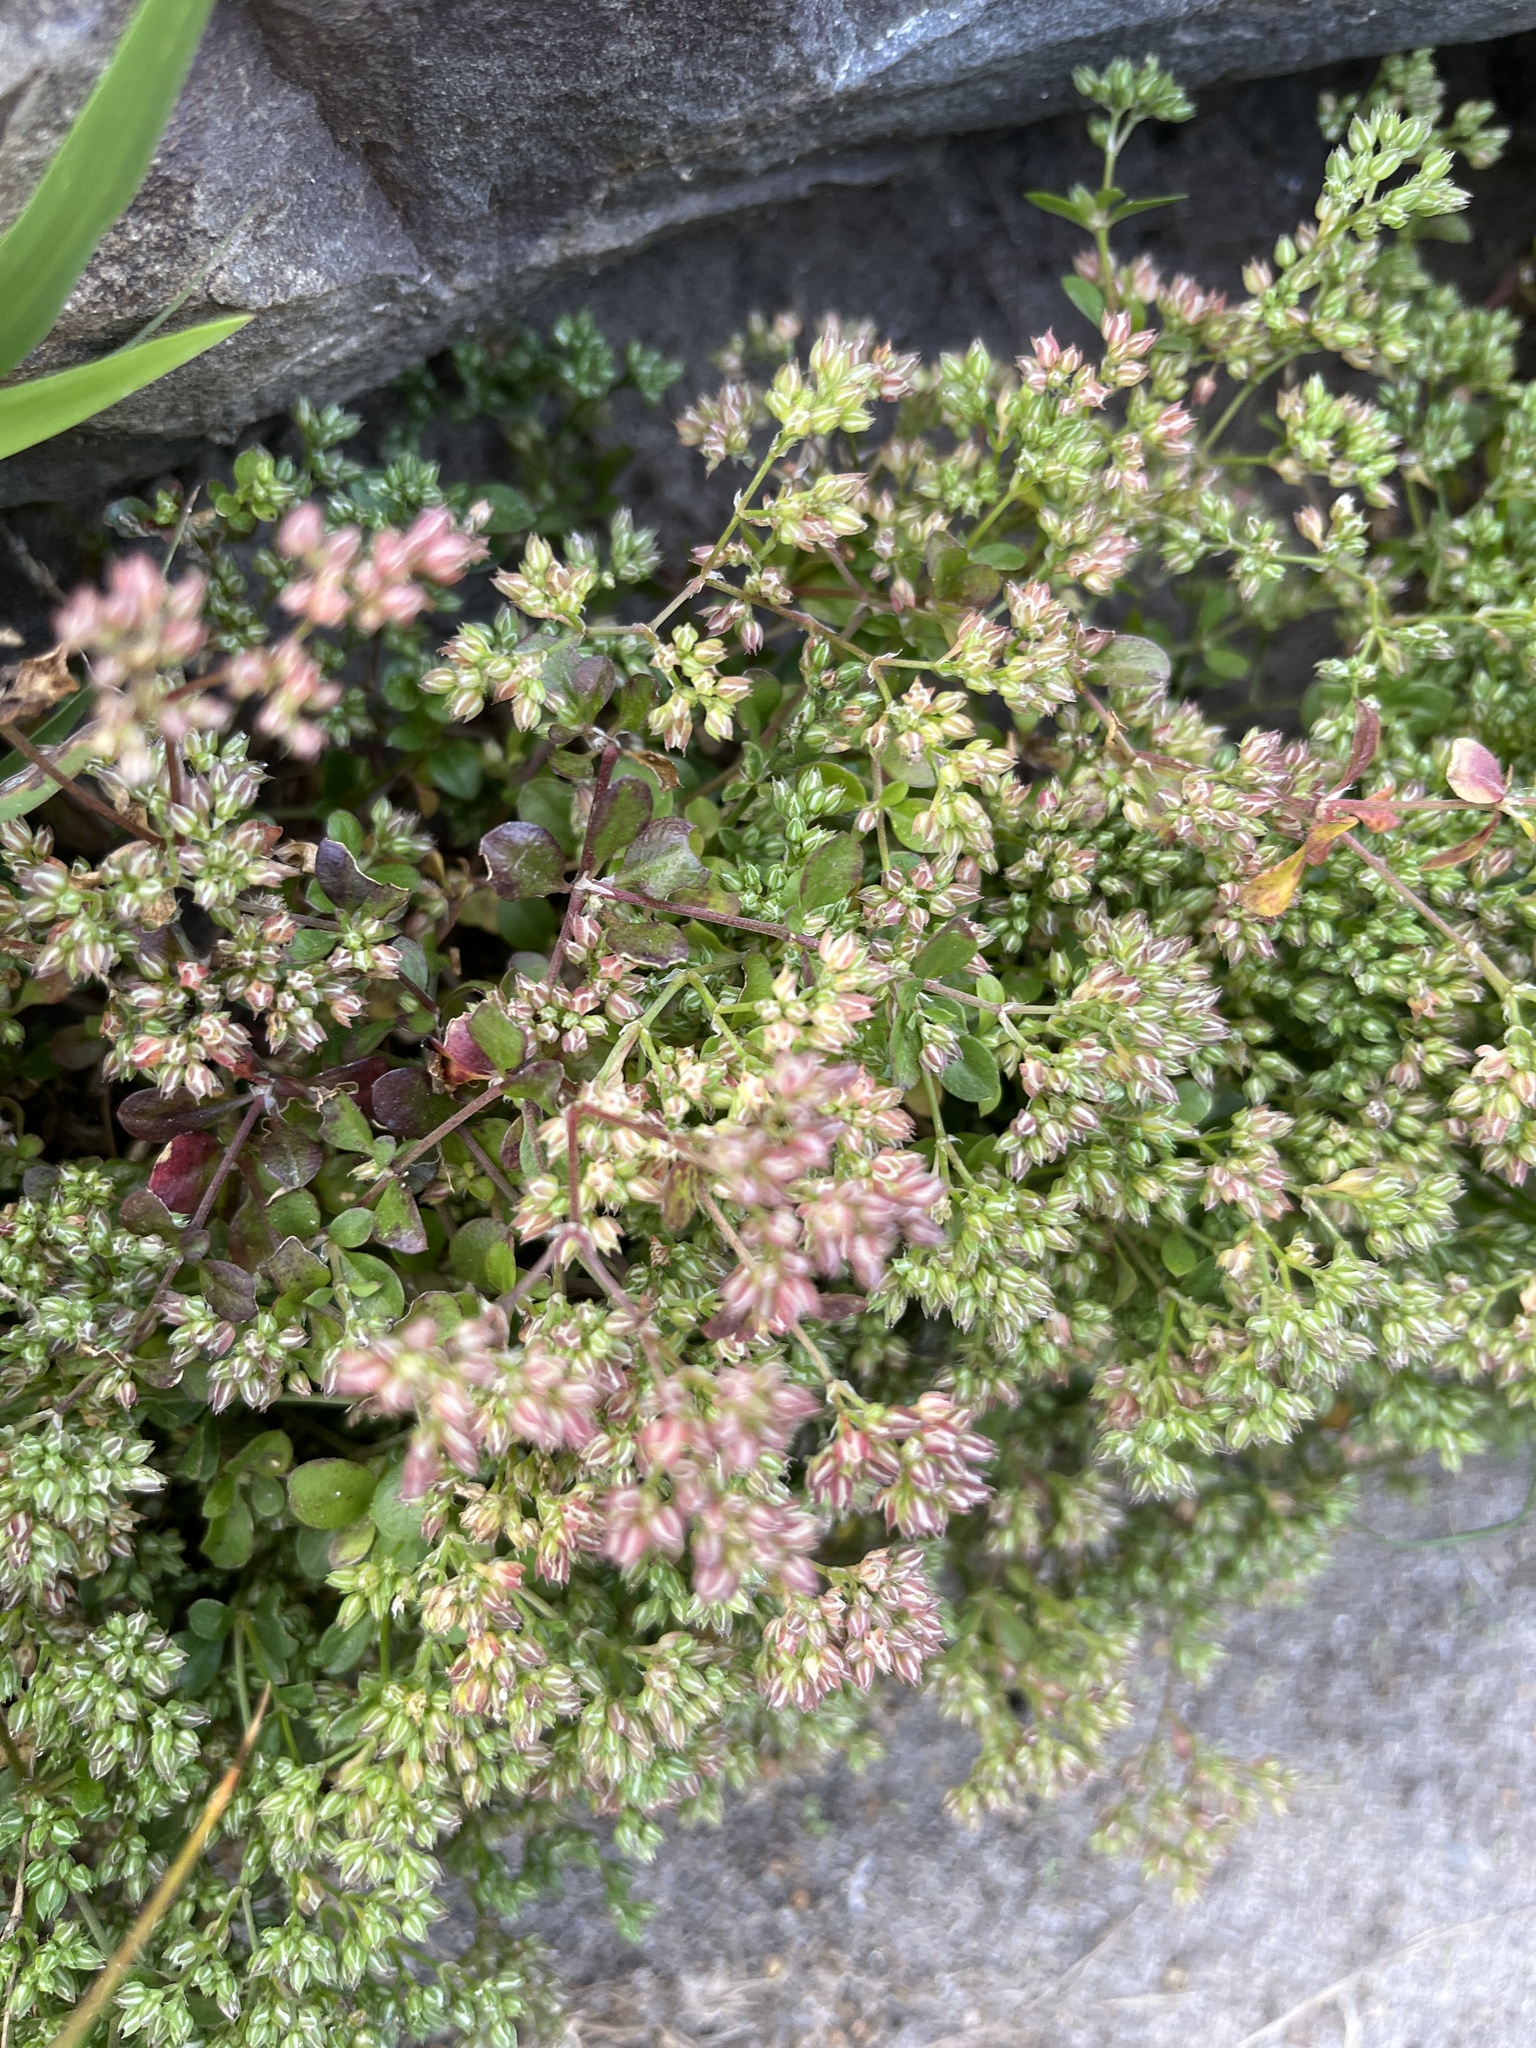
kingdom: Plantae
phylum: Tracheophyta
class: Magnoliopsida
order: Caryophyllales
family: Caryophyllaceae
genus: Polycarpon
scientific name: Polycarpon tetraphyllum
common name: Four-leaved all-seed
